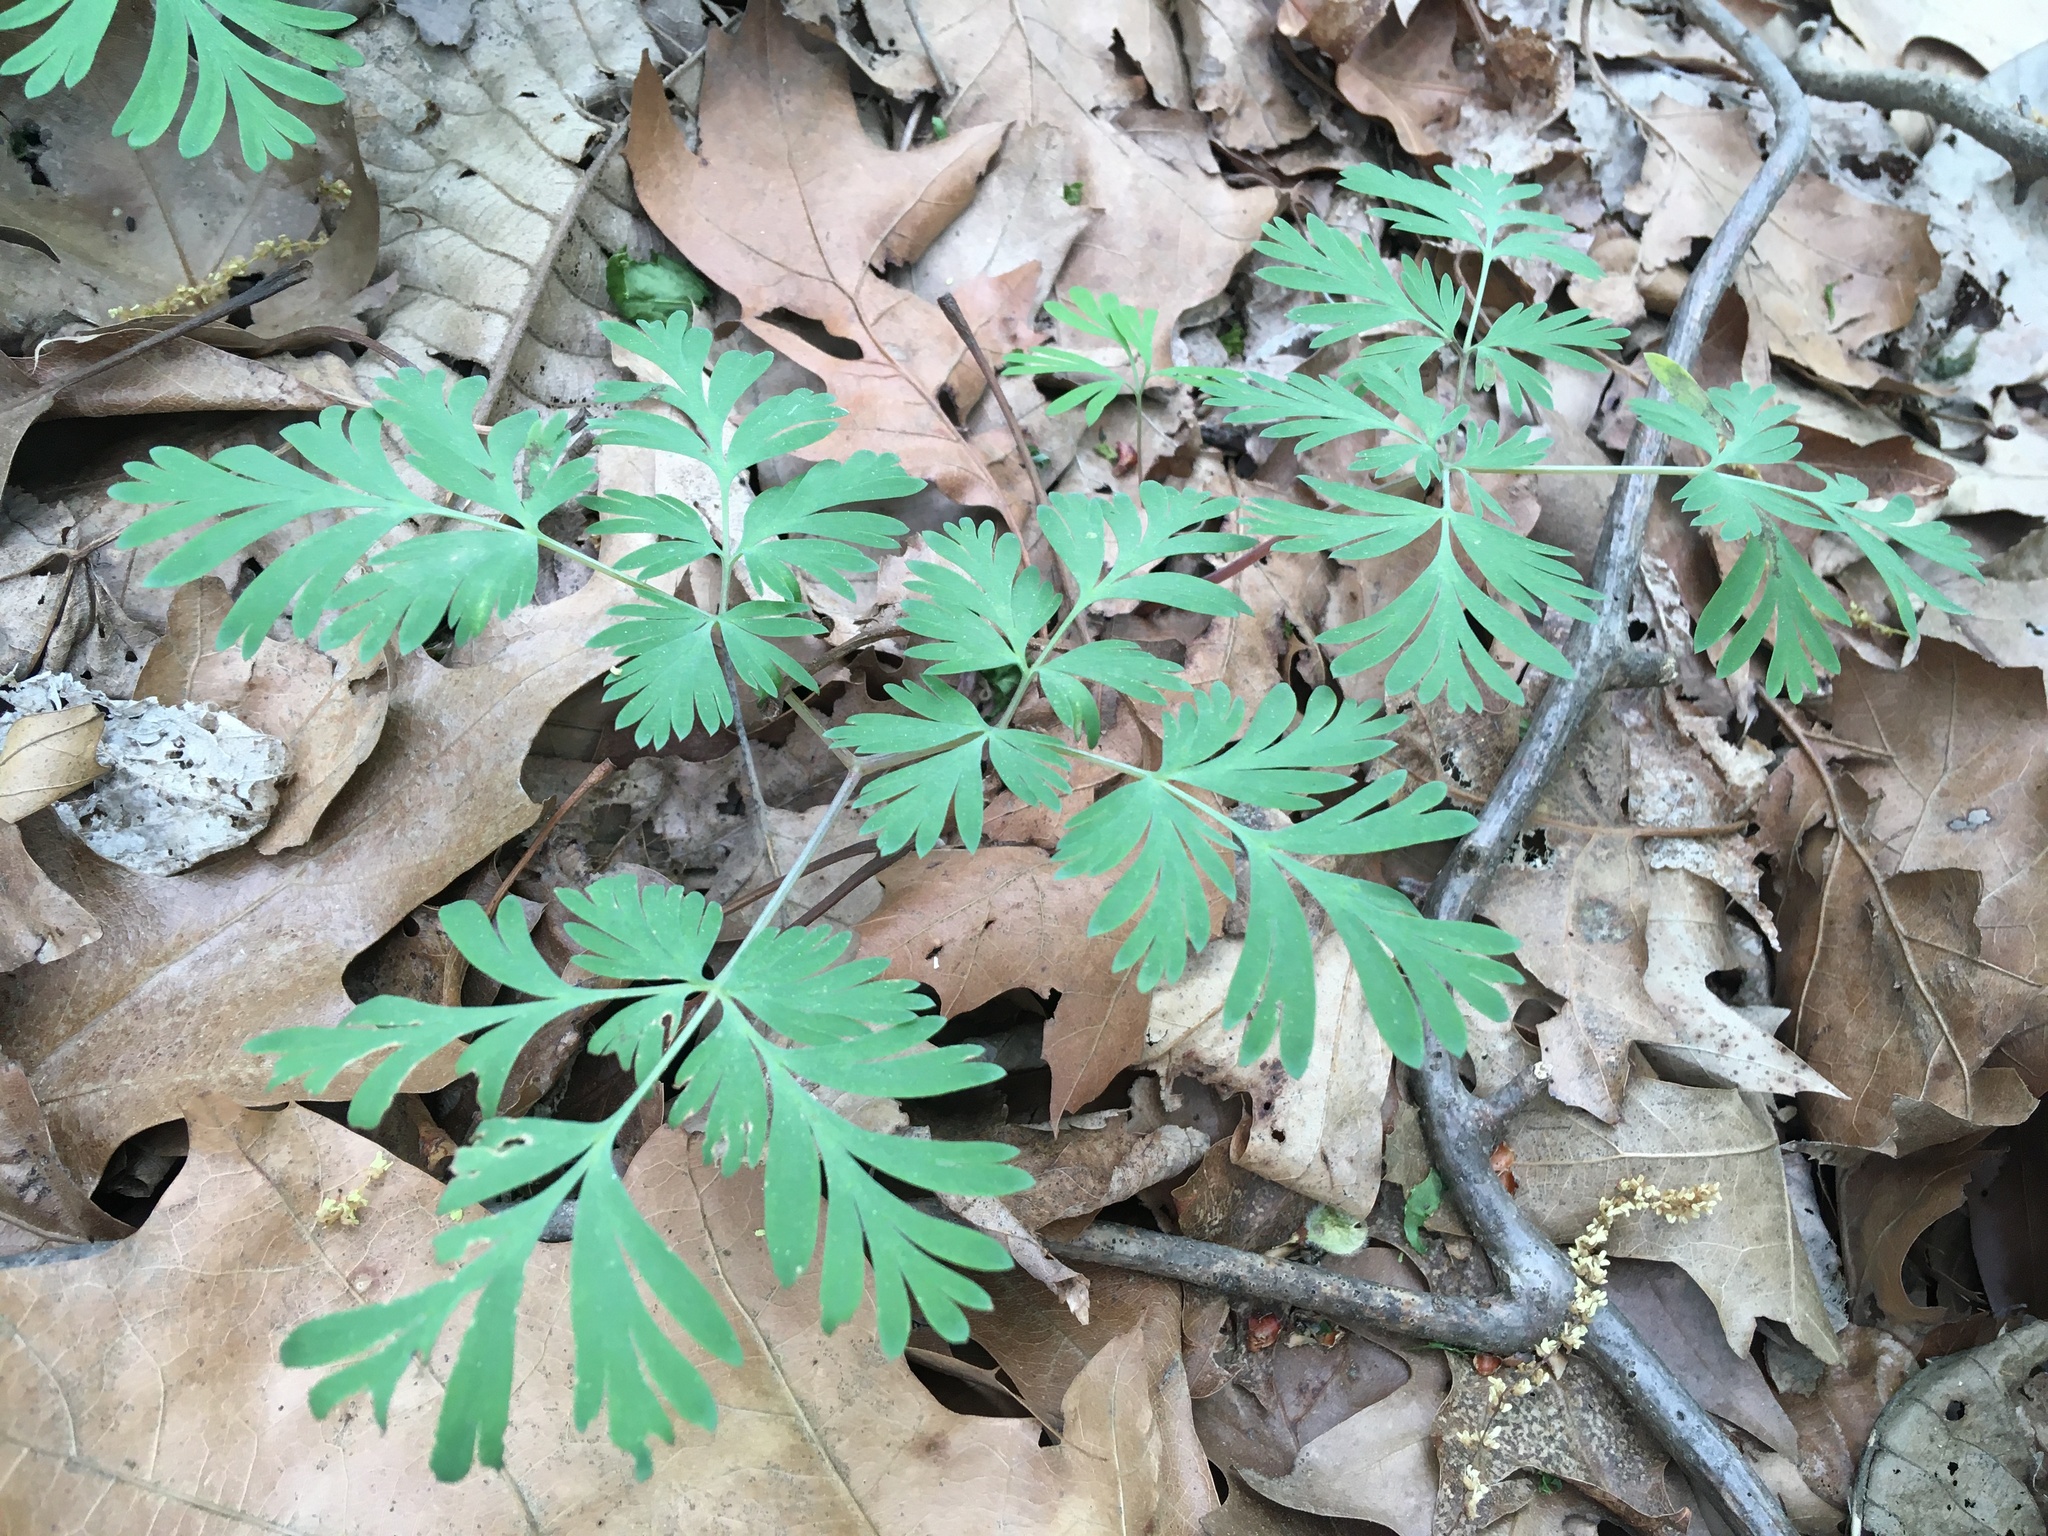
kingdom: Plantae
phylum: Tracheophyta
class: Magnoliopsida
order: Ranunculales
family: Papaveraceae
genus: Dicentra
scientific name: Dicentra cucullaria
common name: Dutchman's breeches
